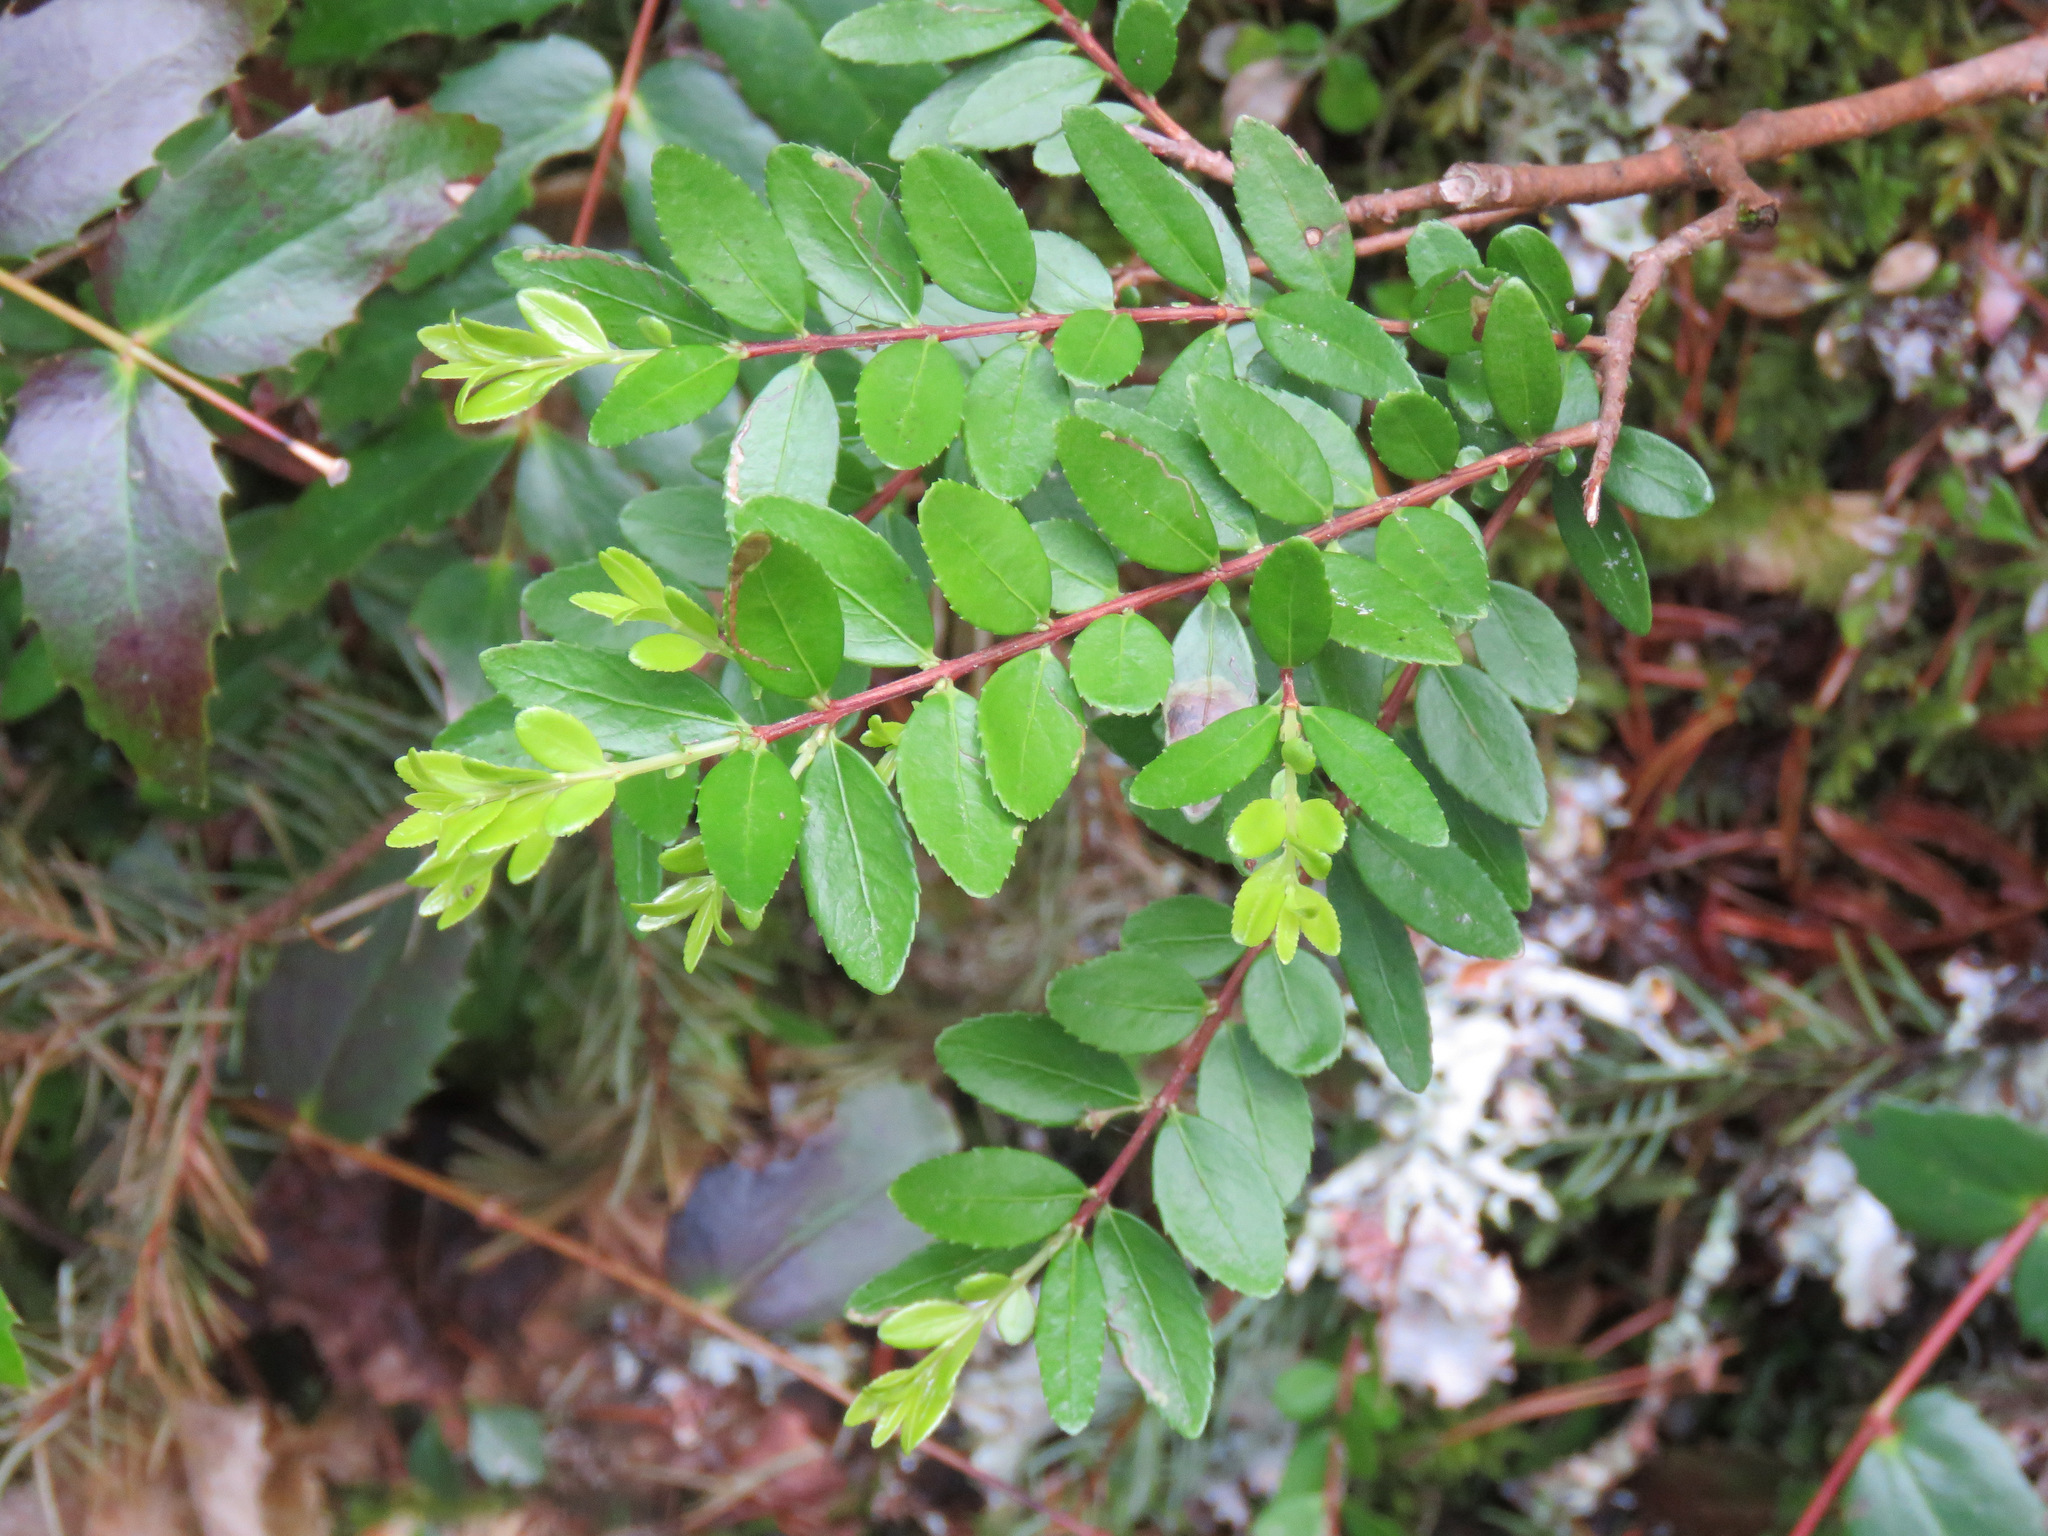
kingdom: Plantae
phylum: Tracheophyta
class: Magnoliopsida
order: Celastrales
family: Celastraceae
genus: Paxistima
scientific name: Paxistima myrsinites
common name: Mountain-lover
